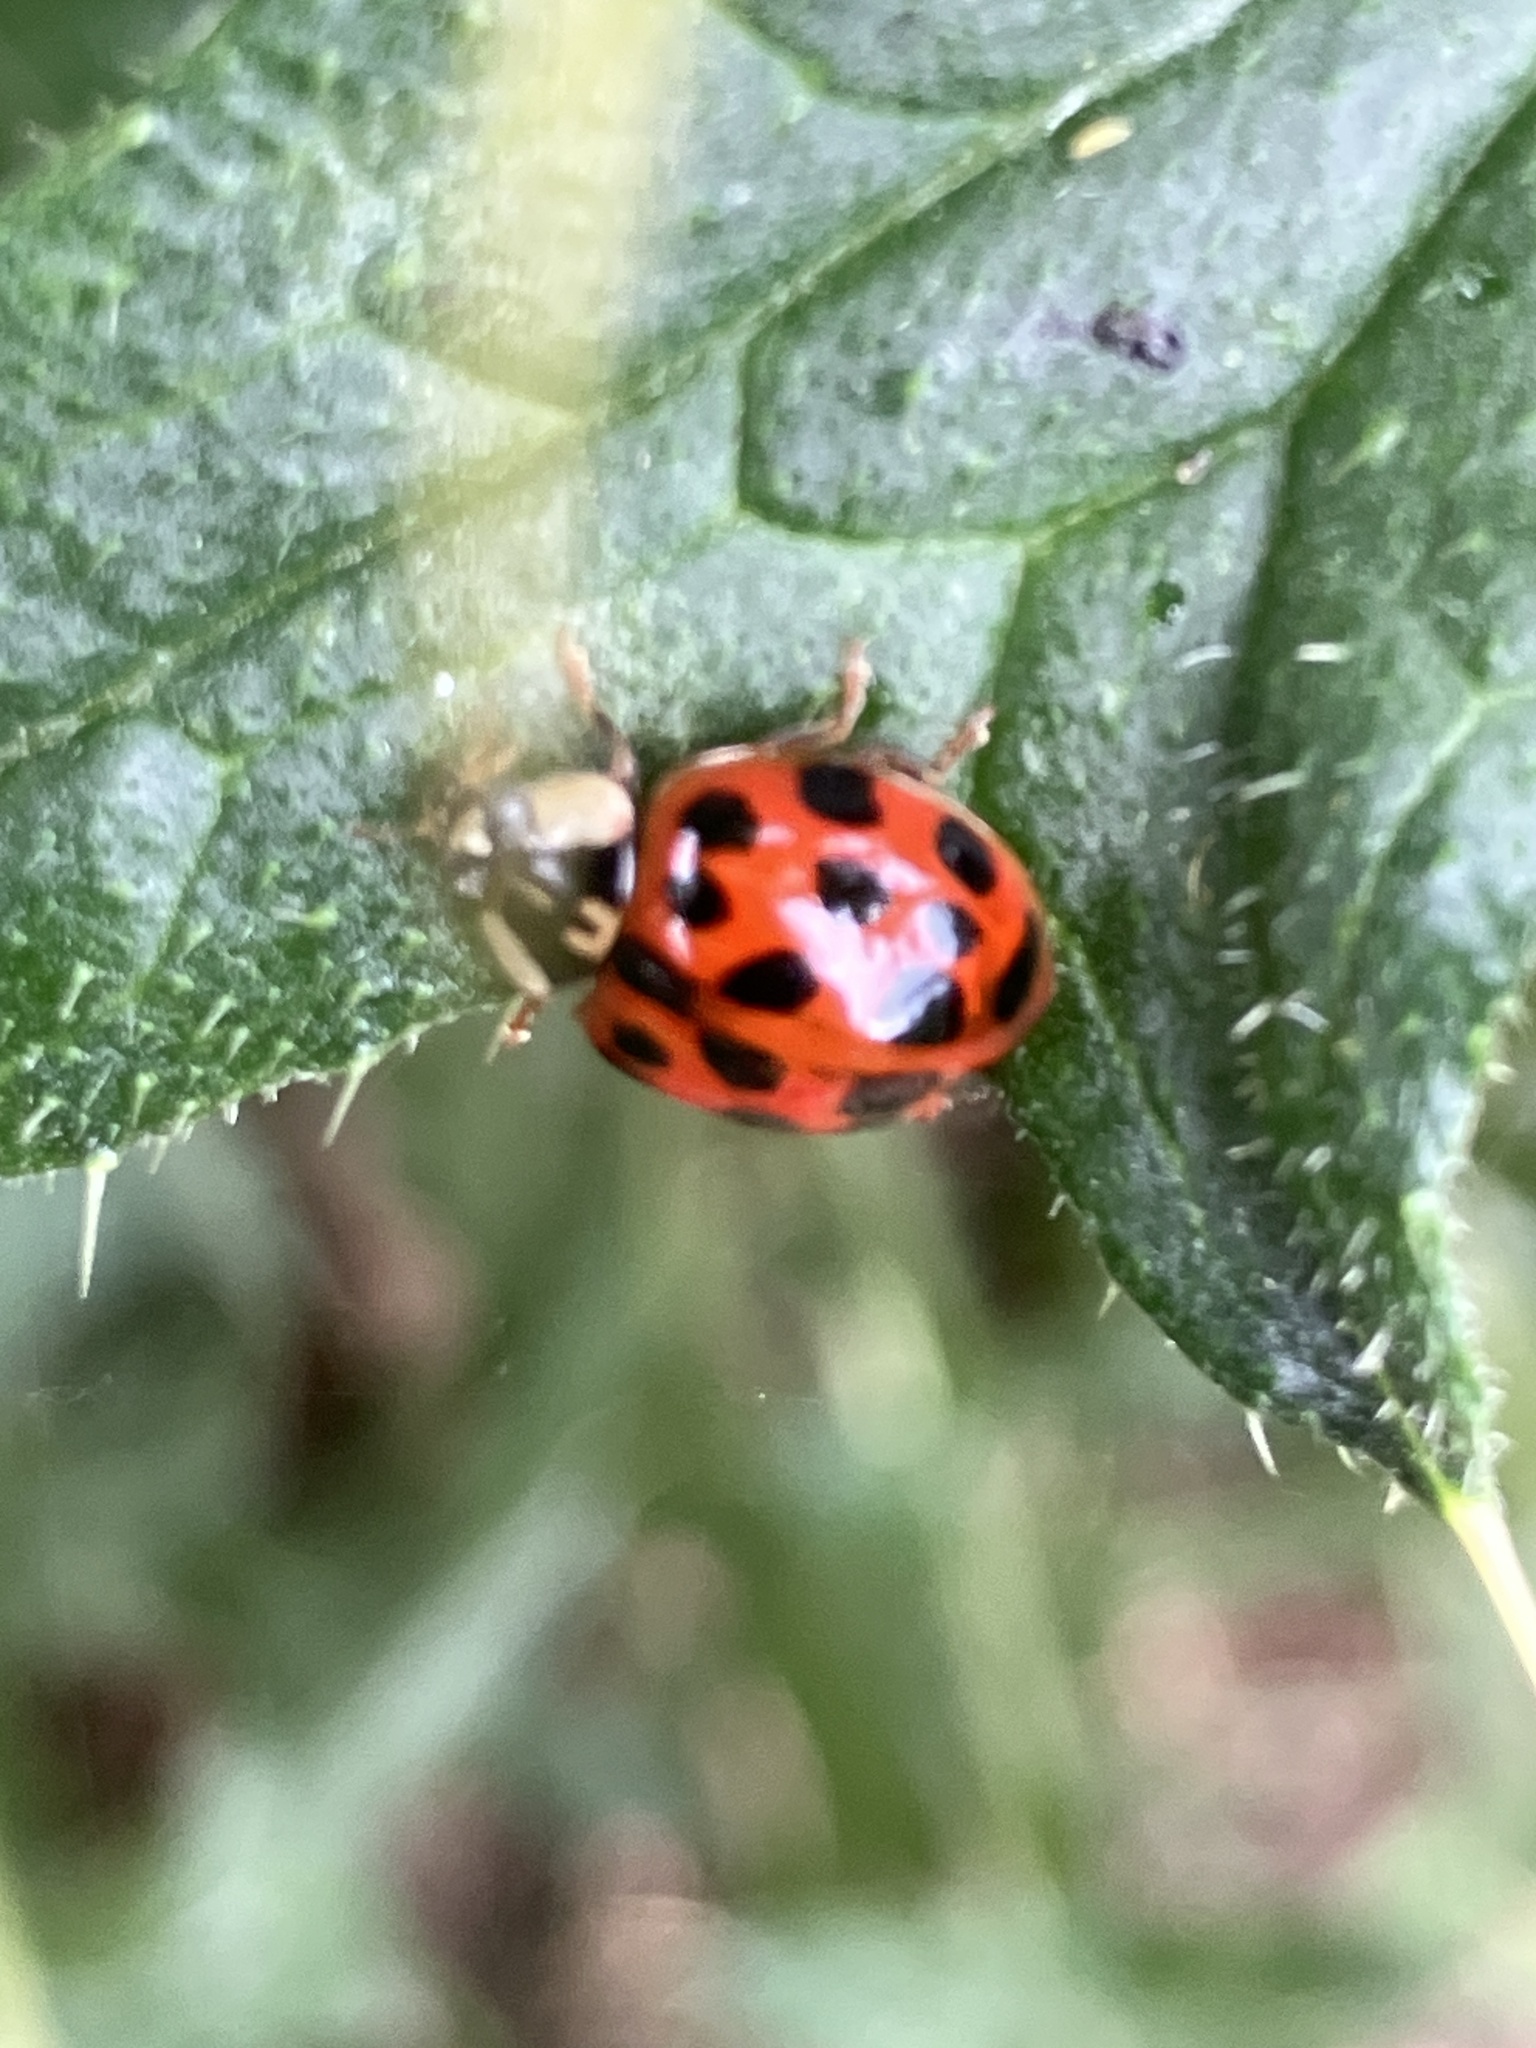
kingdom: Animalia
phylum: Arthropoda
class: Insecta
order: Coleoptera
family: Coccinellidae
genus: Harmonia
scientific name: Harmonia axyridis
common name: Harlequin ladybird
